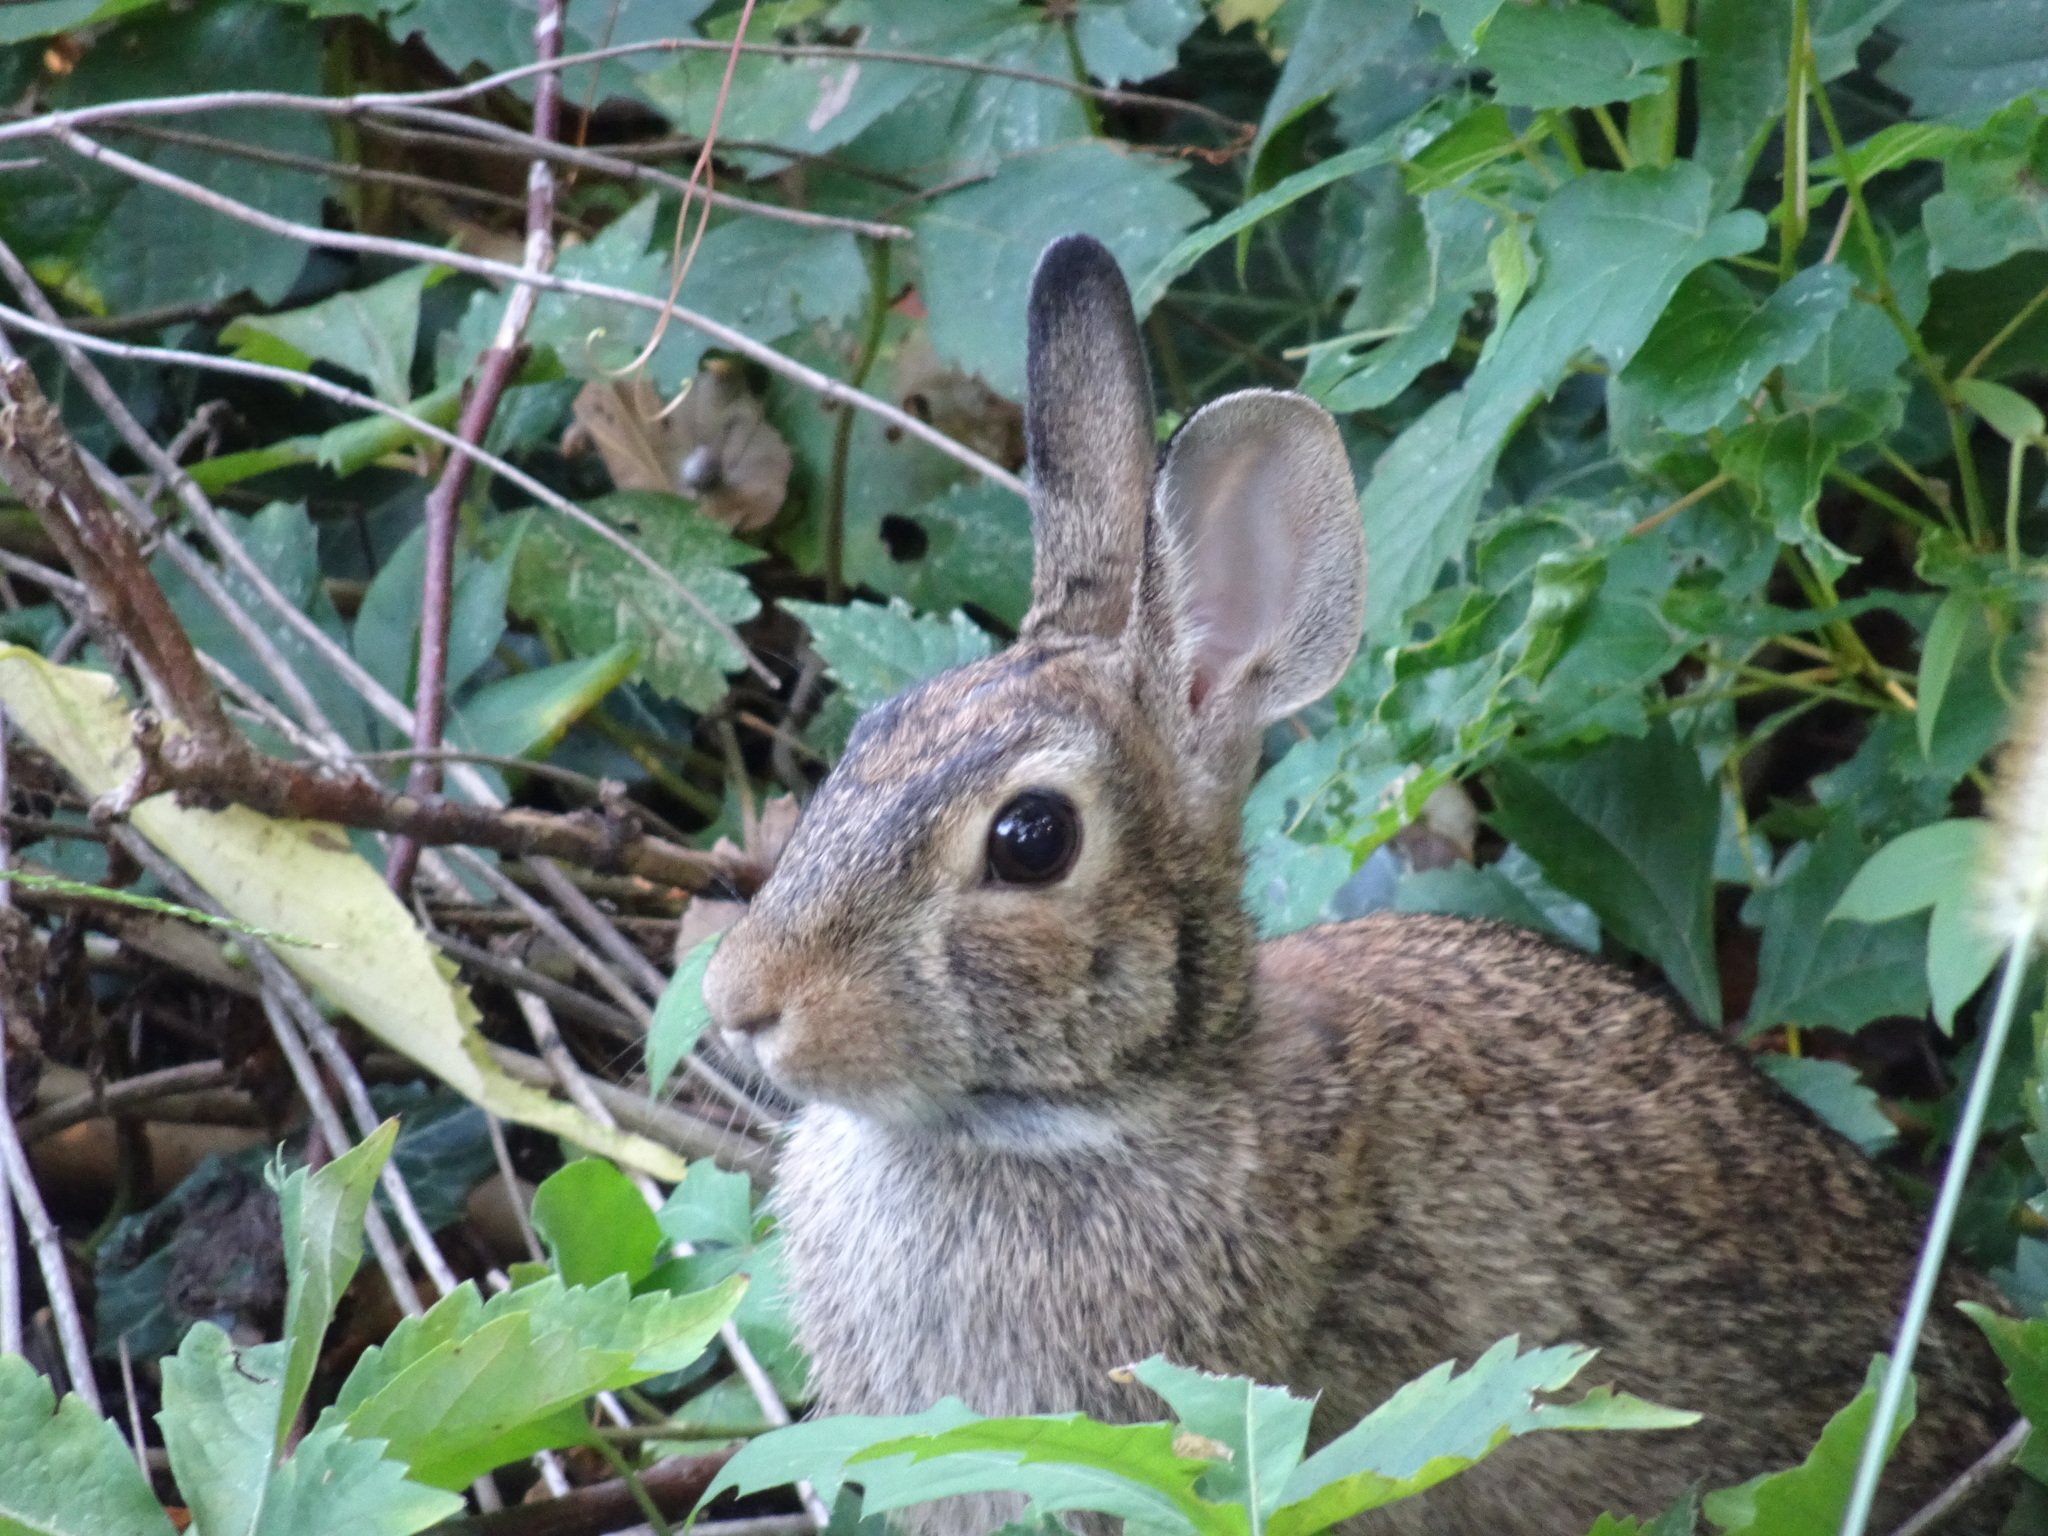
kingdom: Animalia
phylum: Chordata
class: Mammalia
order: Lagomorpha
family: Leporidae
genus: Sylvilagus
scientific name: Sylvilagus floridanus
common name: Eastern cottontail
